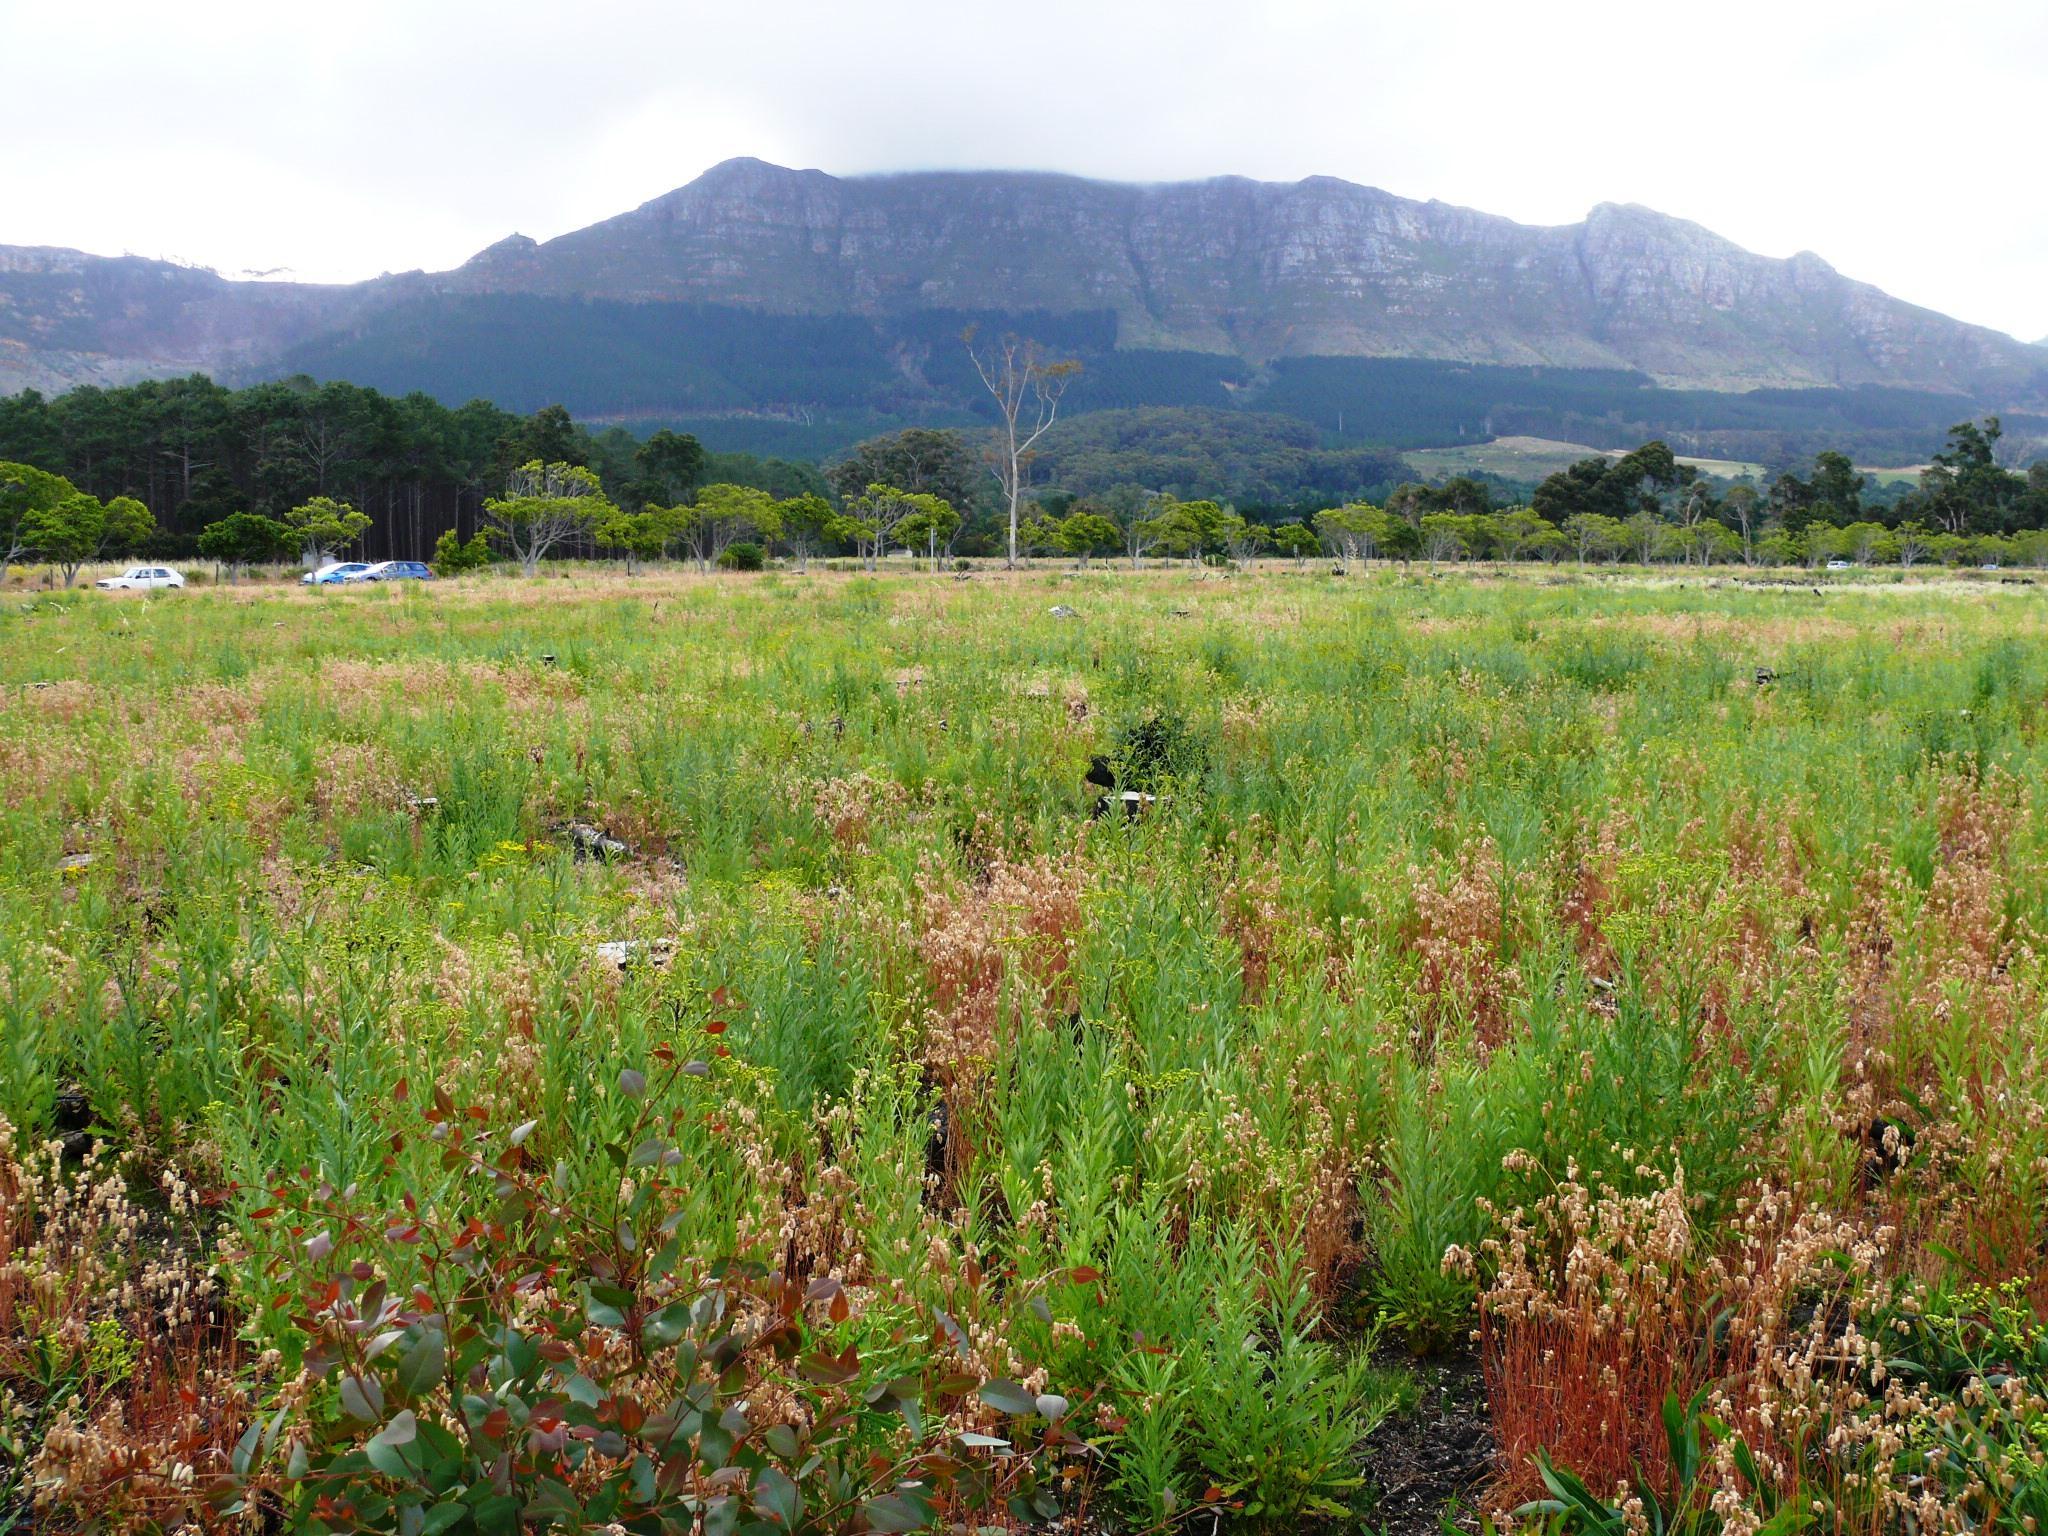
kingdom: Plantae
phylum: Tracheophyta
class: Magnoliopsida
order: Asterales
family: Asteraceae
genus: Senecio
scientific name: Senecio pterophorus
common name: Shoddy ragwort
